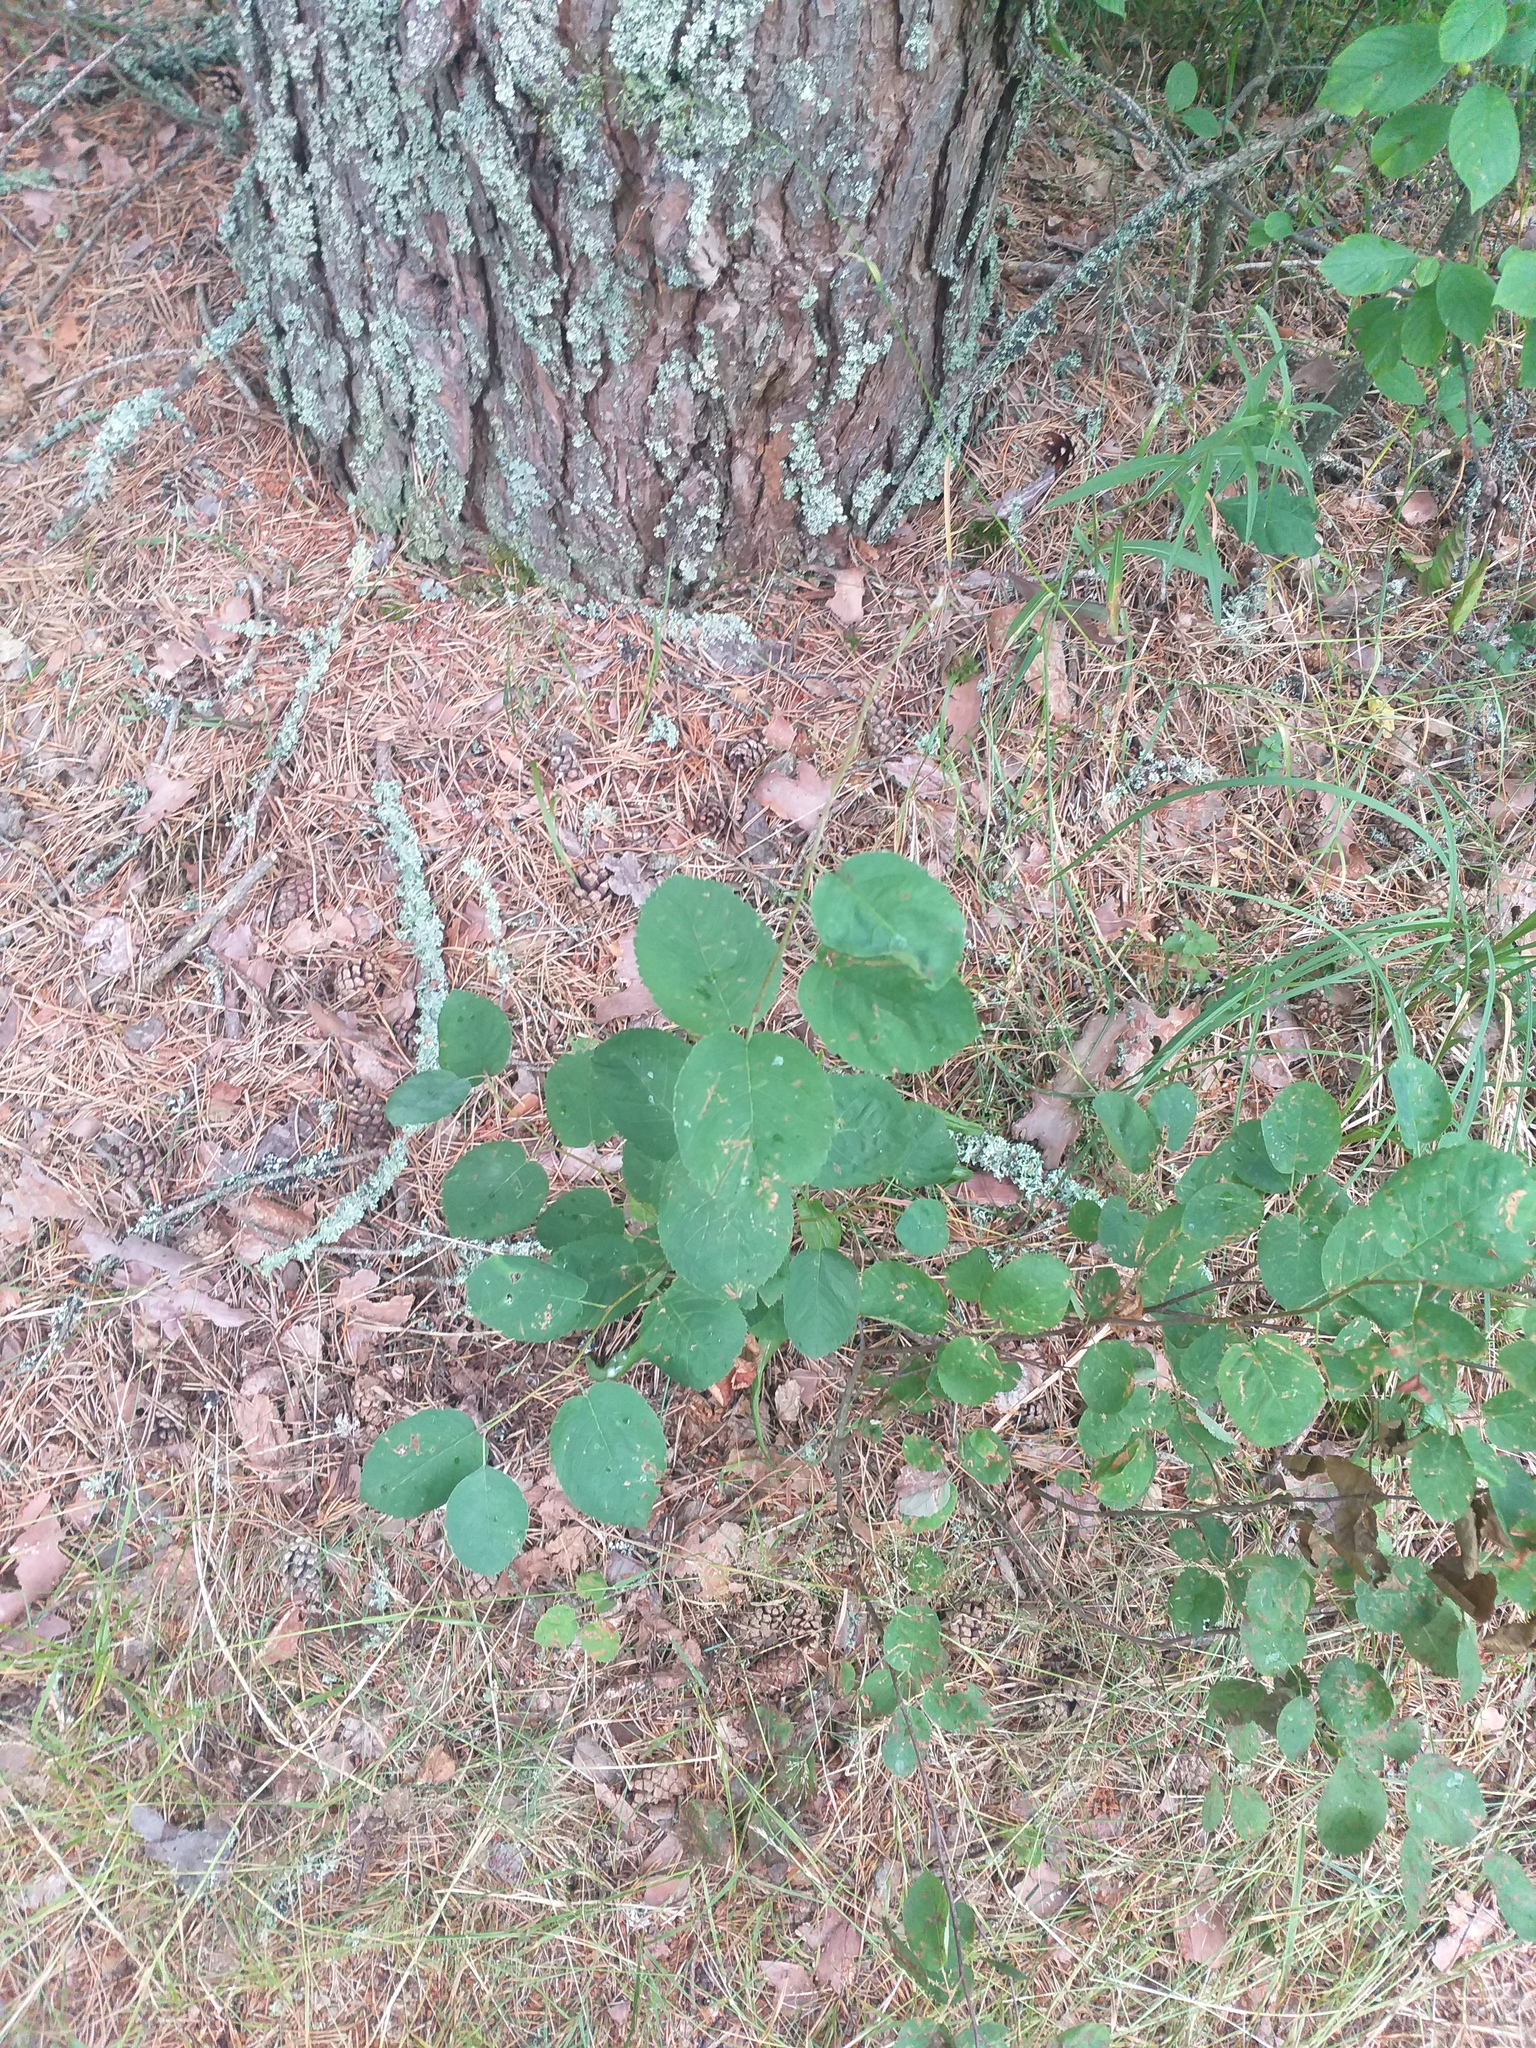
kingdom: Plantae
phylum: Tracheophyta
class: Magnoliopsida
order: Rosales
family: Rosaceae
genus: Amelanchier
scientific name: Amelanchier
